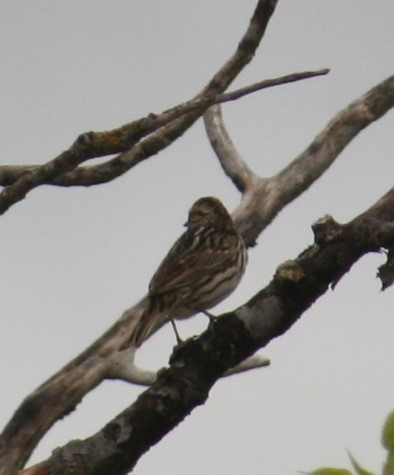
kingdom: Animalia
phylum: Chordata
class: Aves
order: Passeriformes
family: Passerellidae
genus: Passerculus
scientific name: Passerculus sandwichensis
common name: Savannah sparrow
